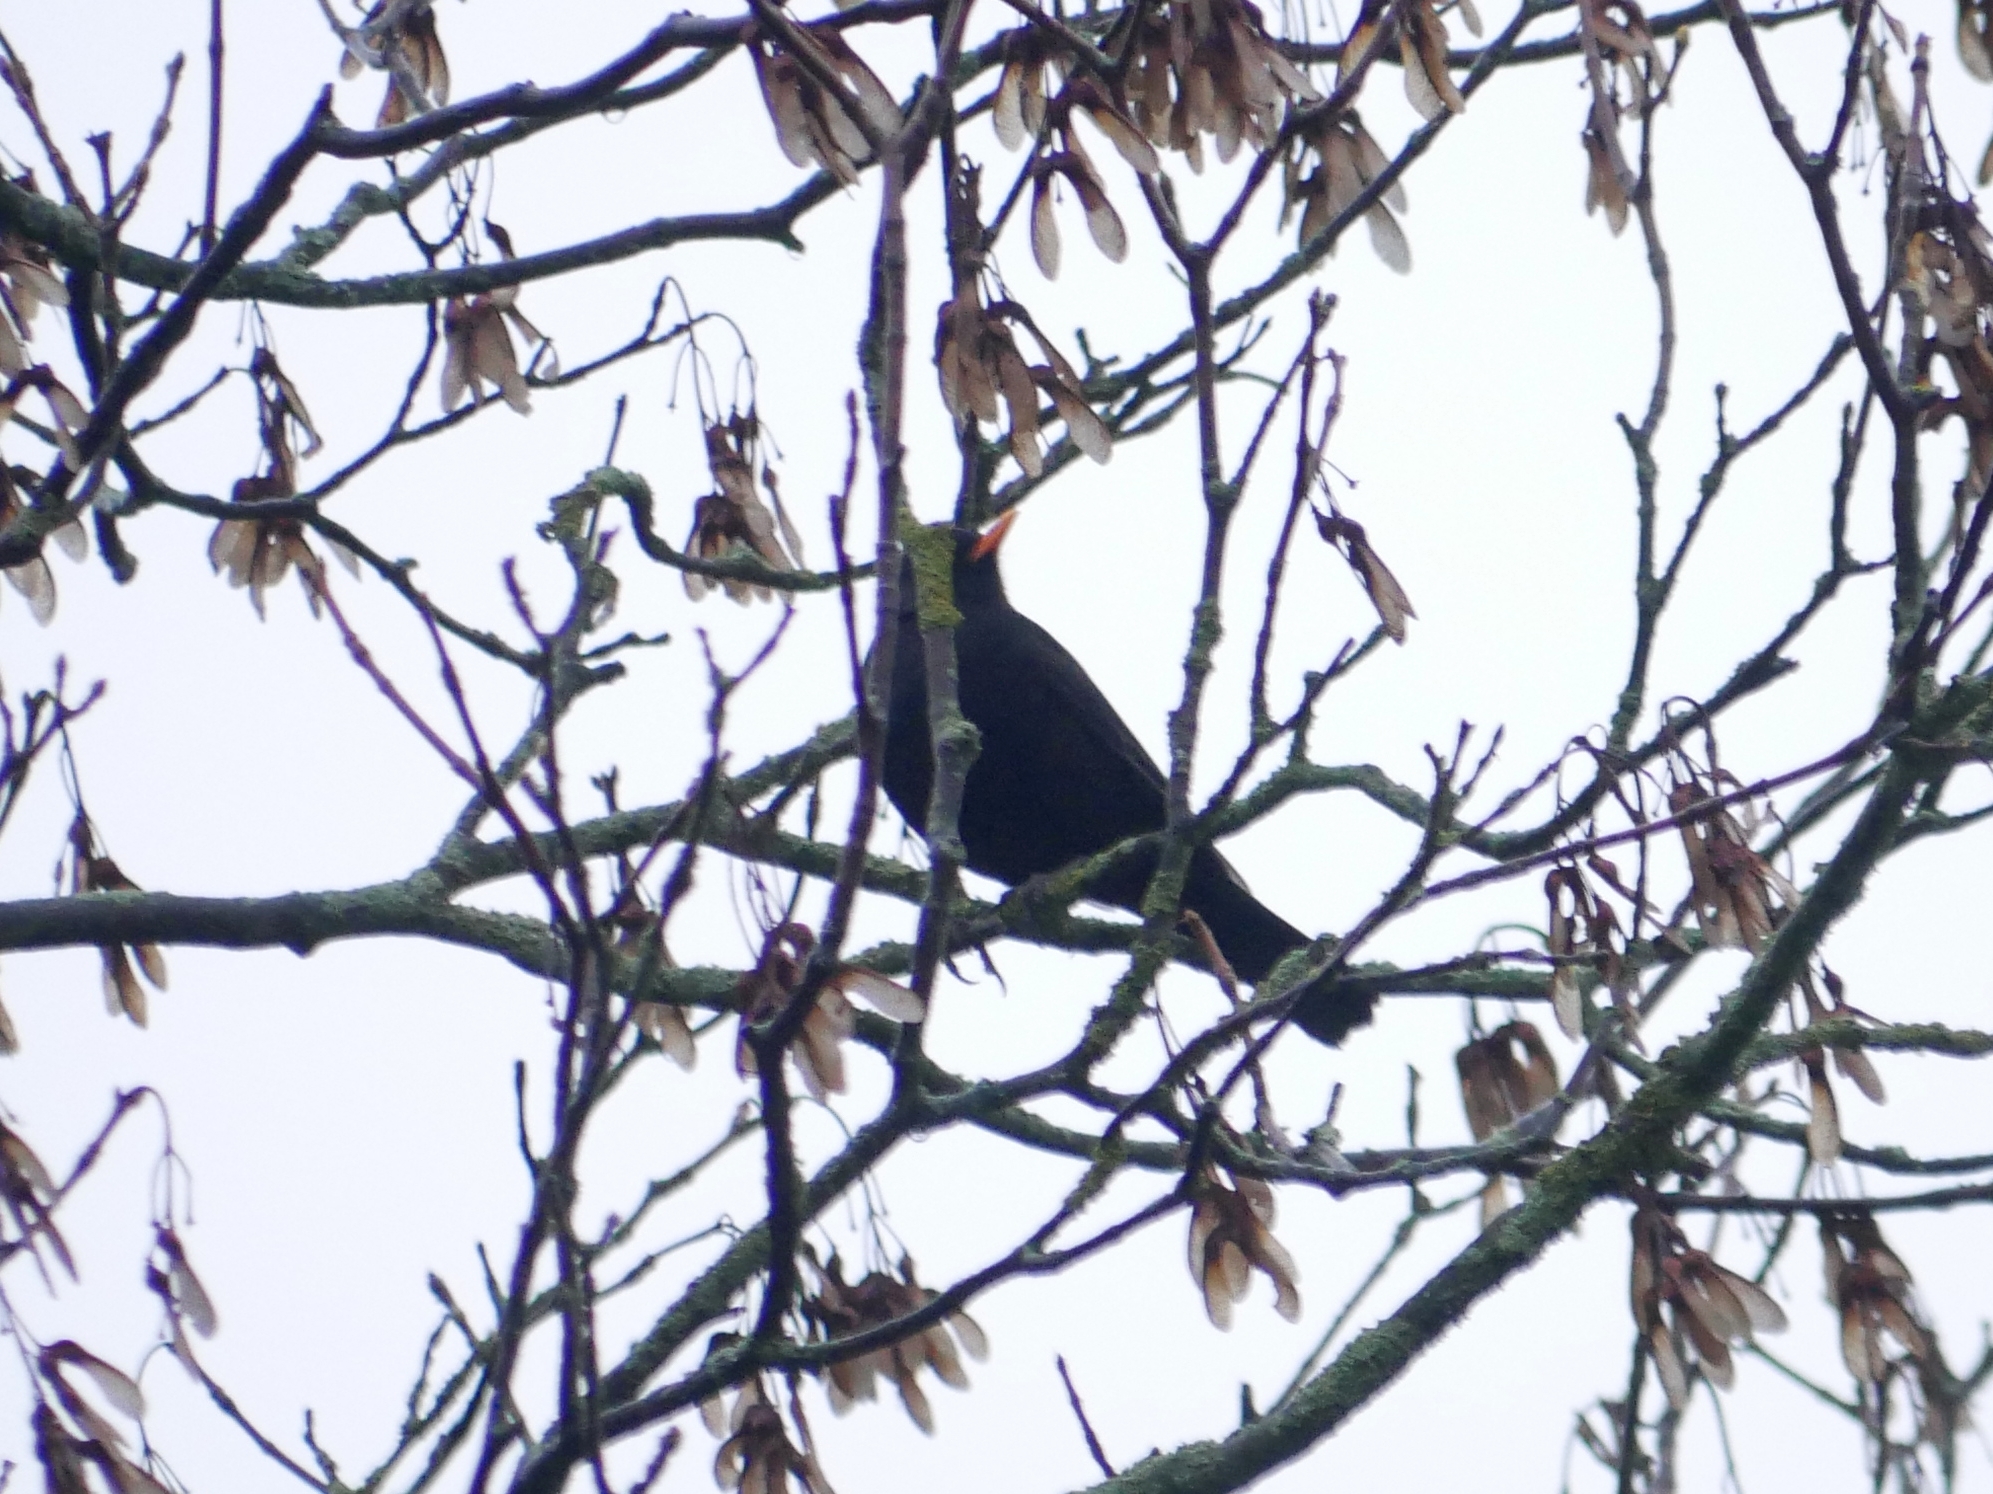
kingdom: Animalia
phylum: Chordata
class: Aves
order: Passeriformes
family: Turdidae
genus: Turdus
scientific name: Turdus merula
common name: Common blackbird
